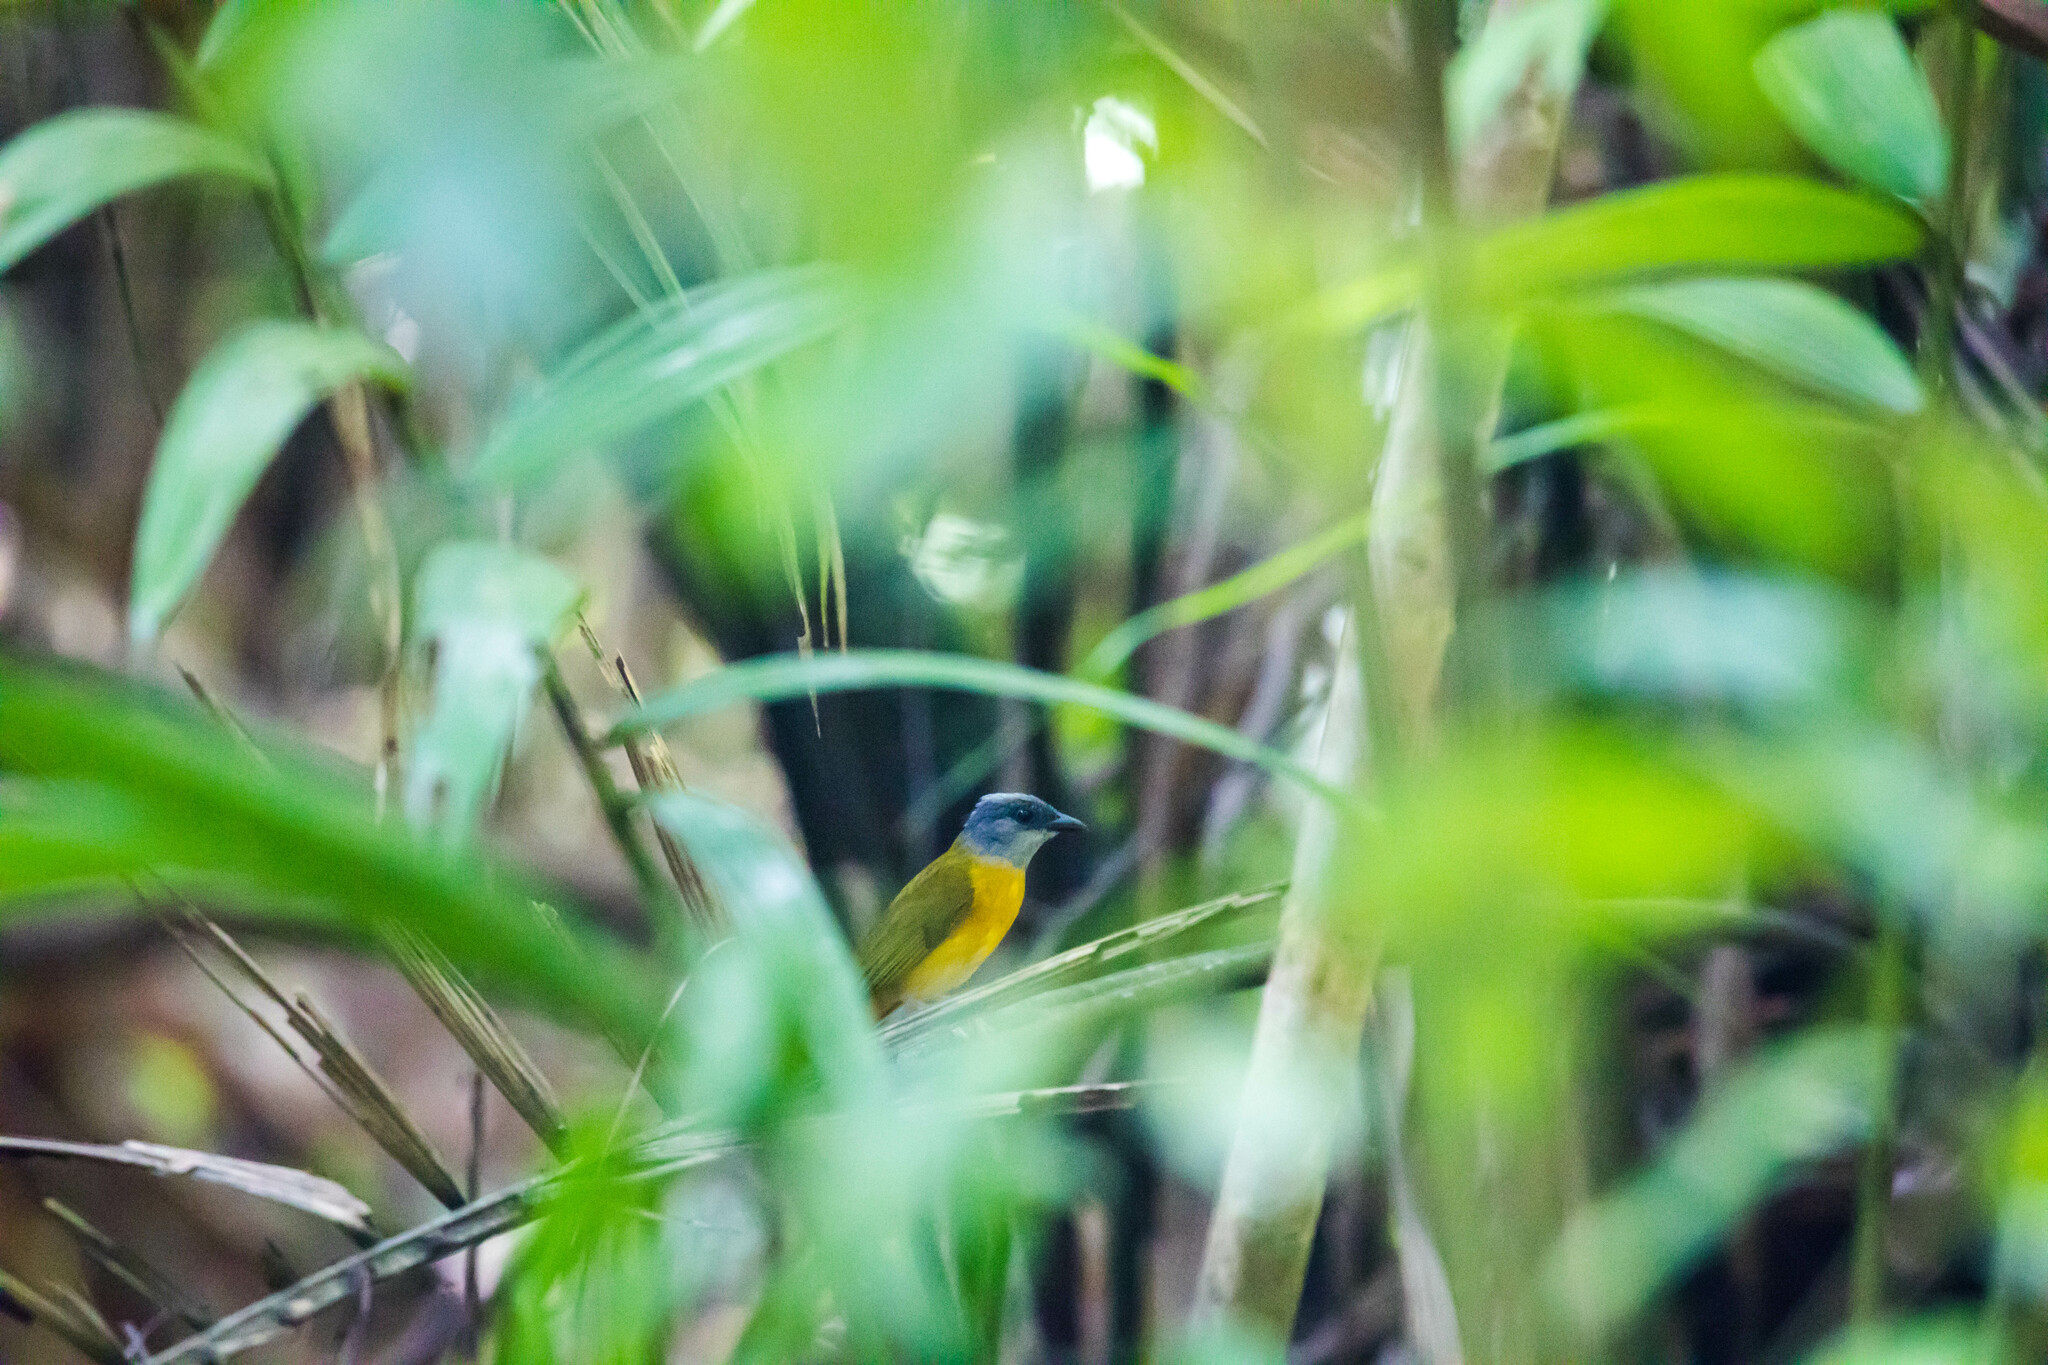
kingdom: Animalia
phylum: Chordata
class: Aves
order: Passeriformes
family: Thraupidae
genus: Eucometis
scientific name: Eucometis penicillata
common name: Grey-headed tanager
